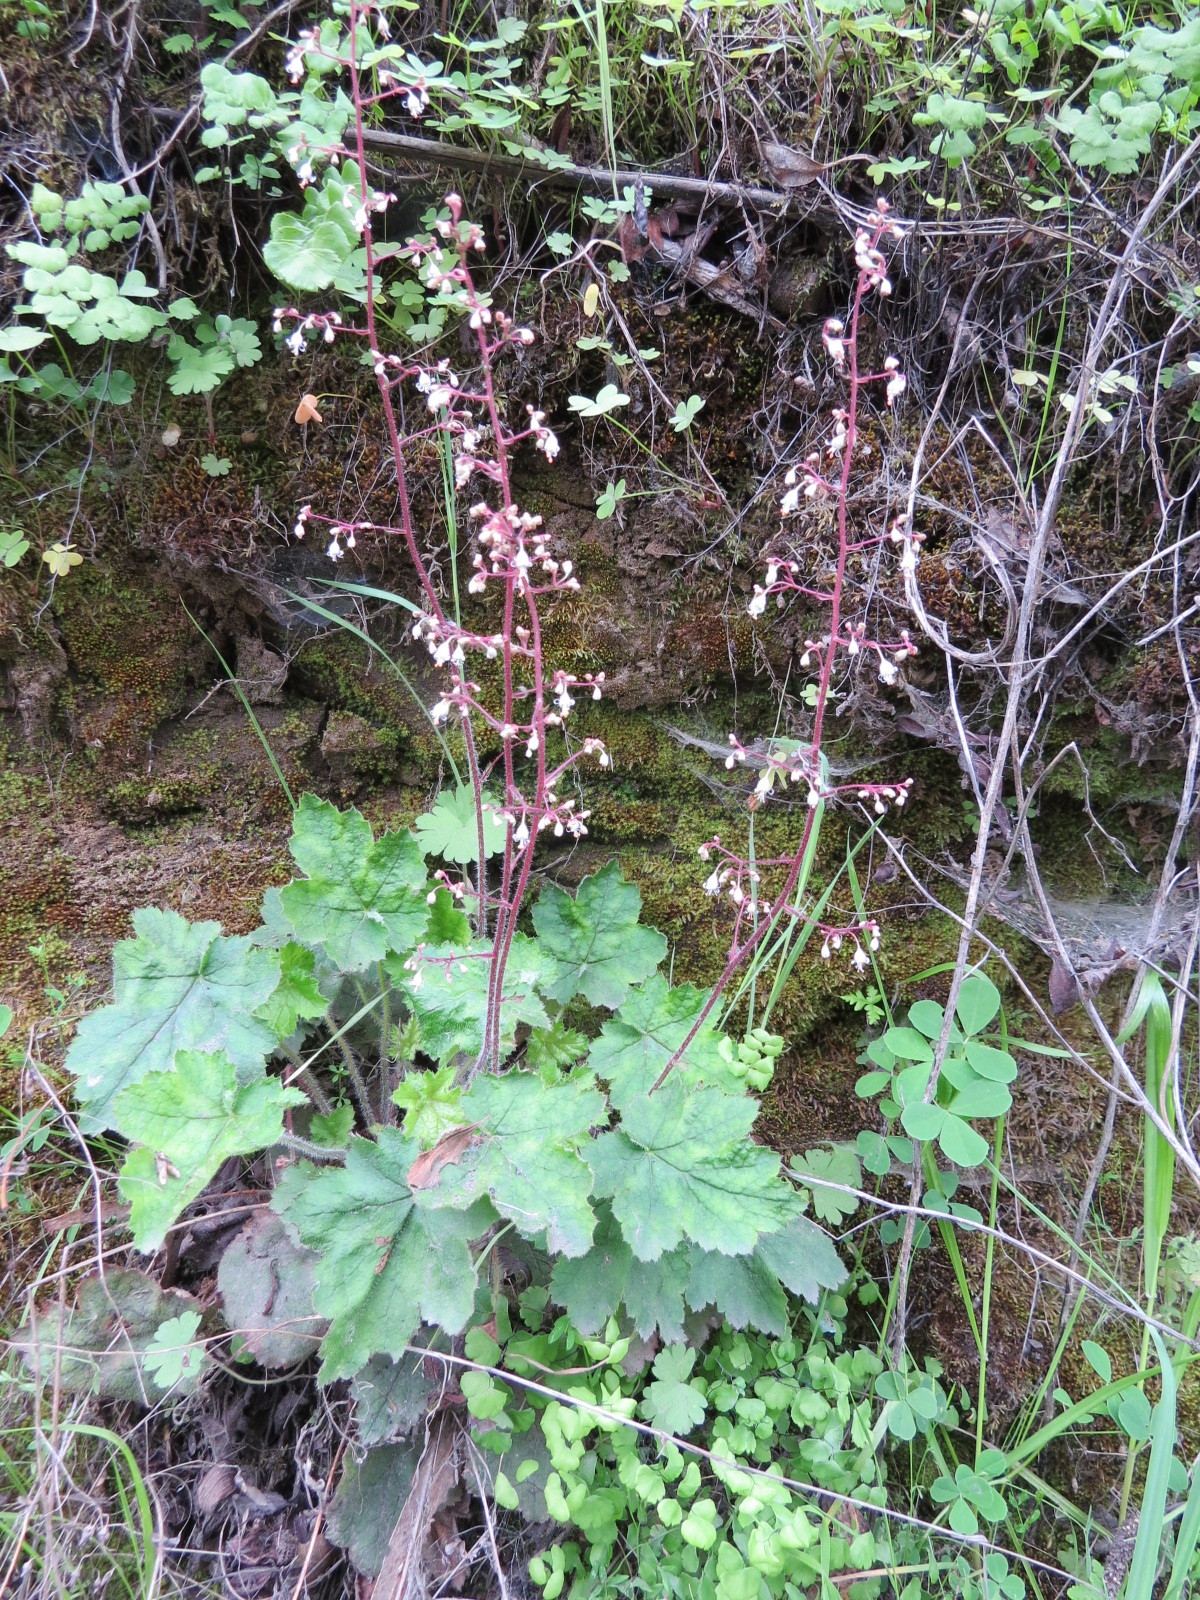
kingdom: Plantae
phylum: Tracheophyta
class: Magnoliopsida
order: Saxifragales
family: Saxifragaceae
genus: Heuchera
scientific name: Heuchera micrantha
